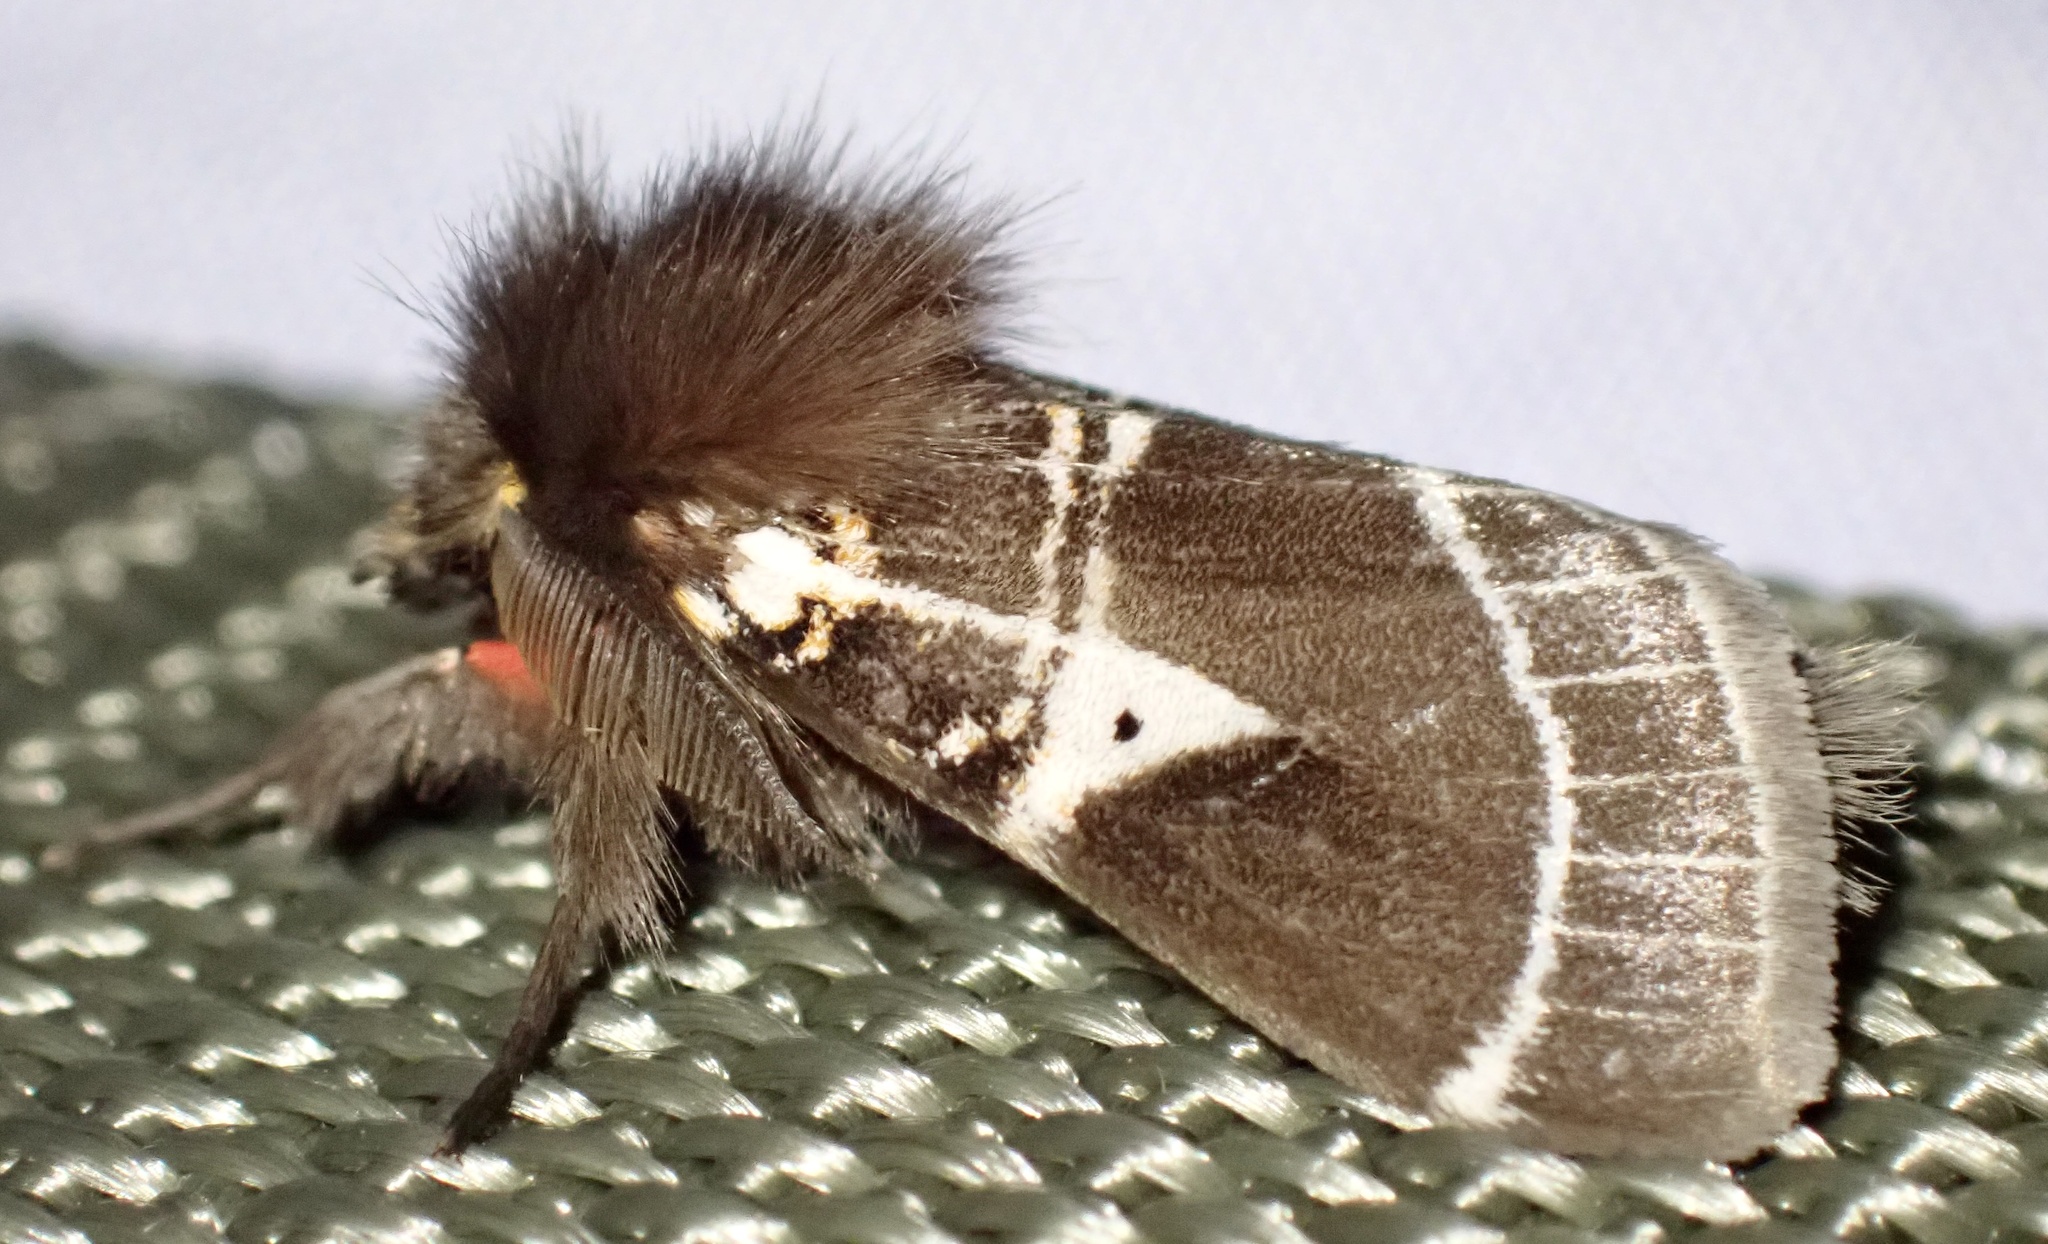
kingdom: Animalia
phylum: Arthropoda
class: Insecta
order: Lepidoptera
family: Erebidae
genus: Lymantria
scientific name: Lymantria Morasa modesta
